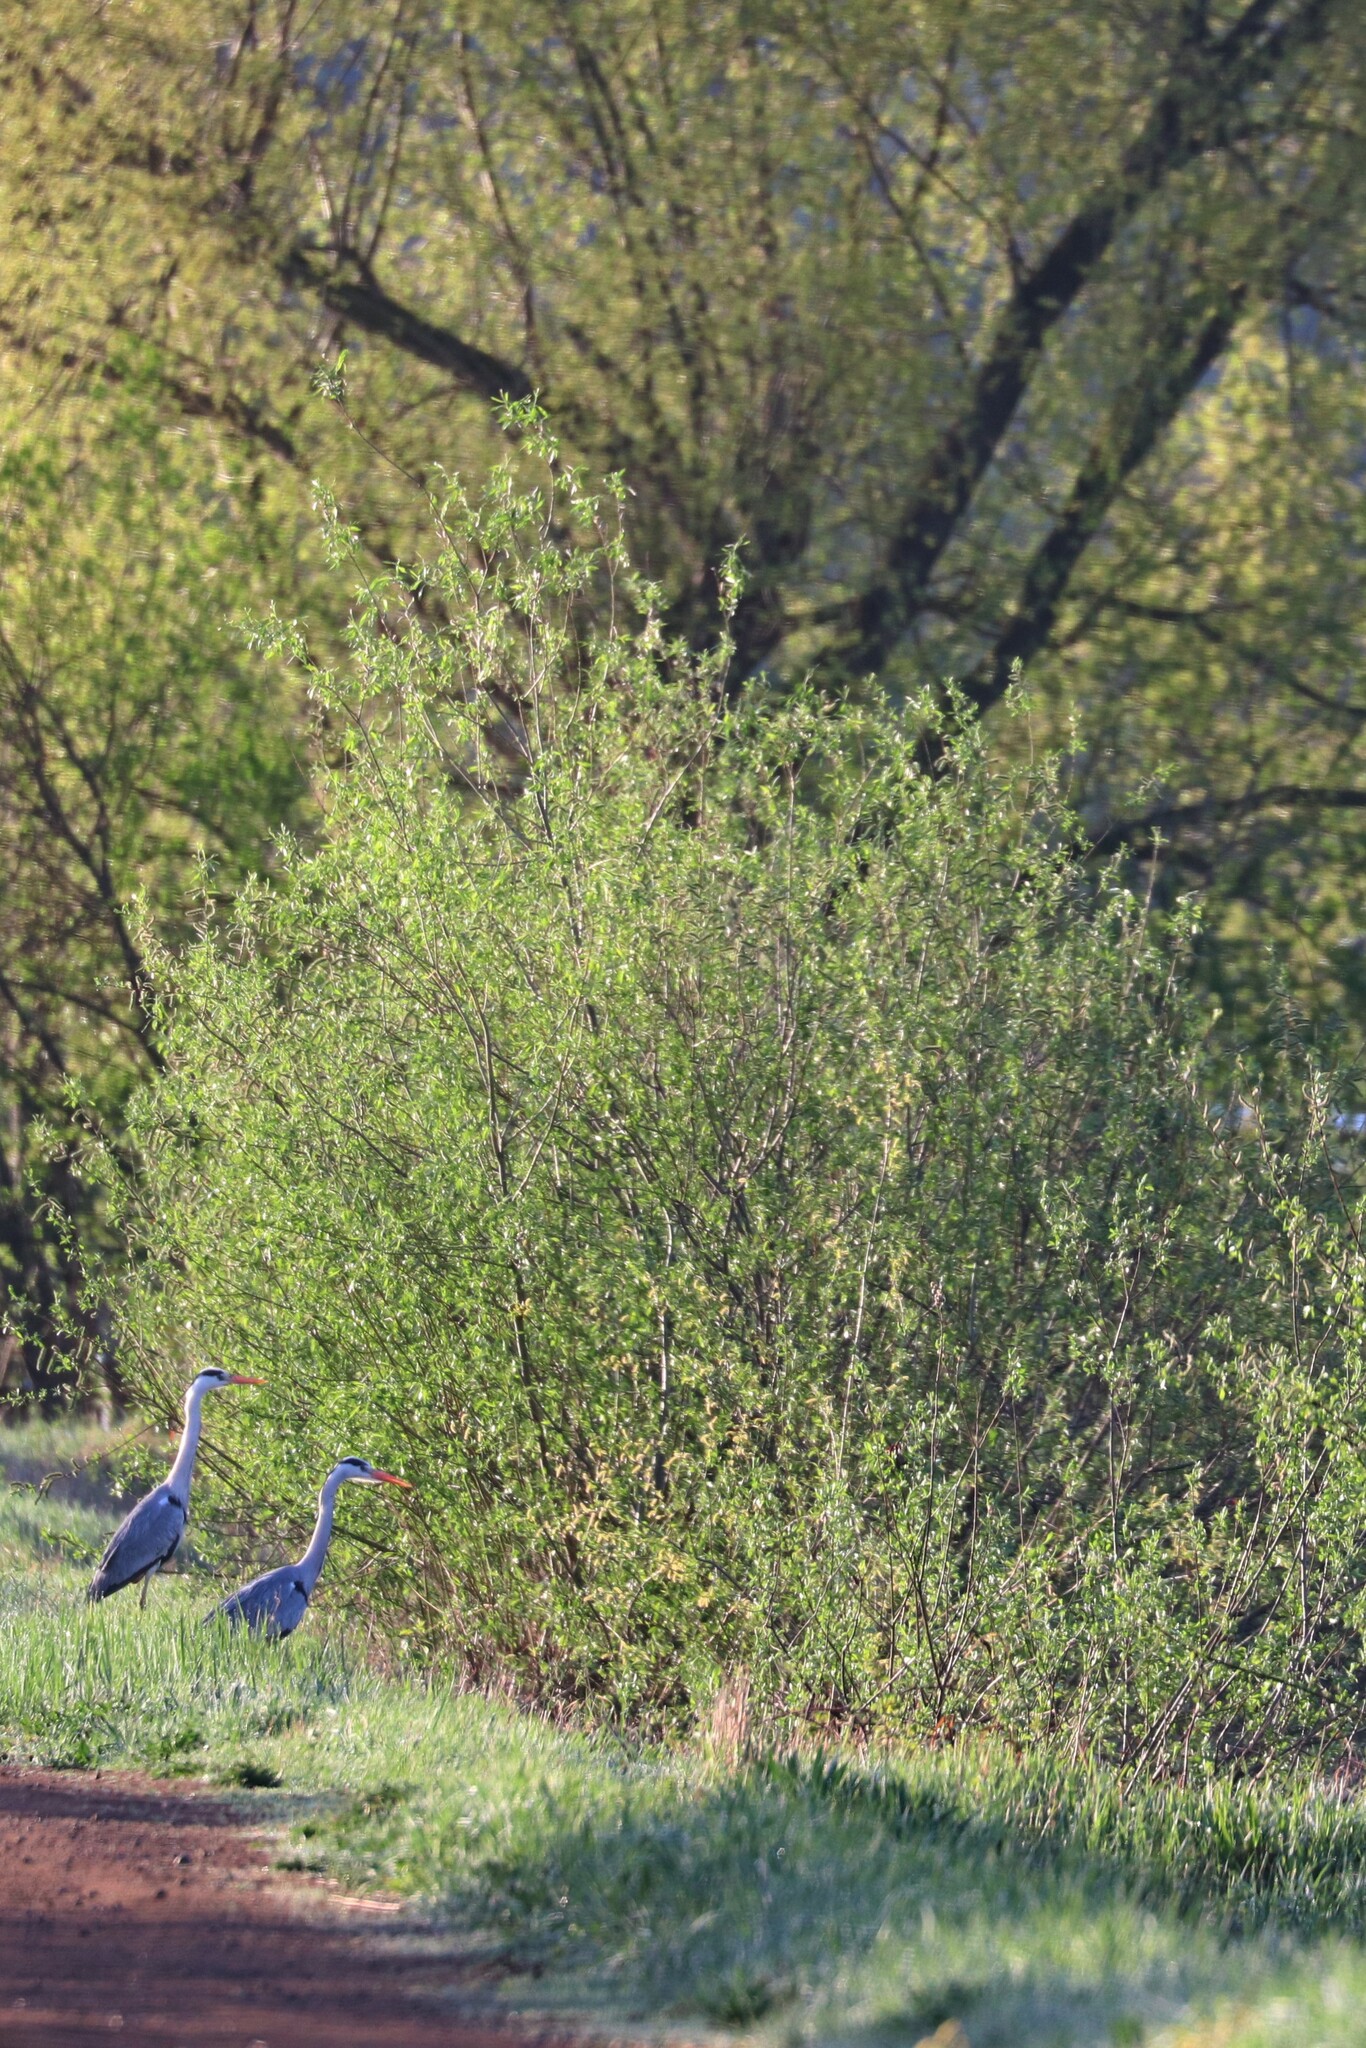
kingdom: Animalia
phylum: Chordata
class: Aves
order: Pelecaniformes
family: Ardeidae
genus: Ardea
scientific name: Ardea cinerea
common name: Grey heron
